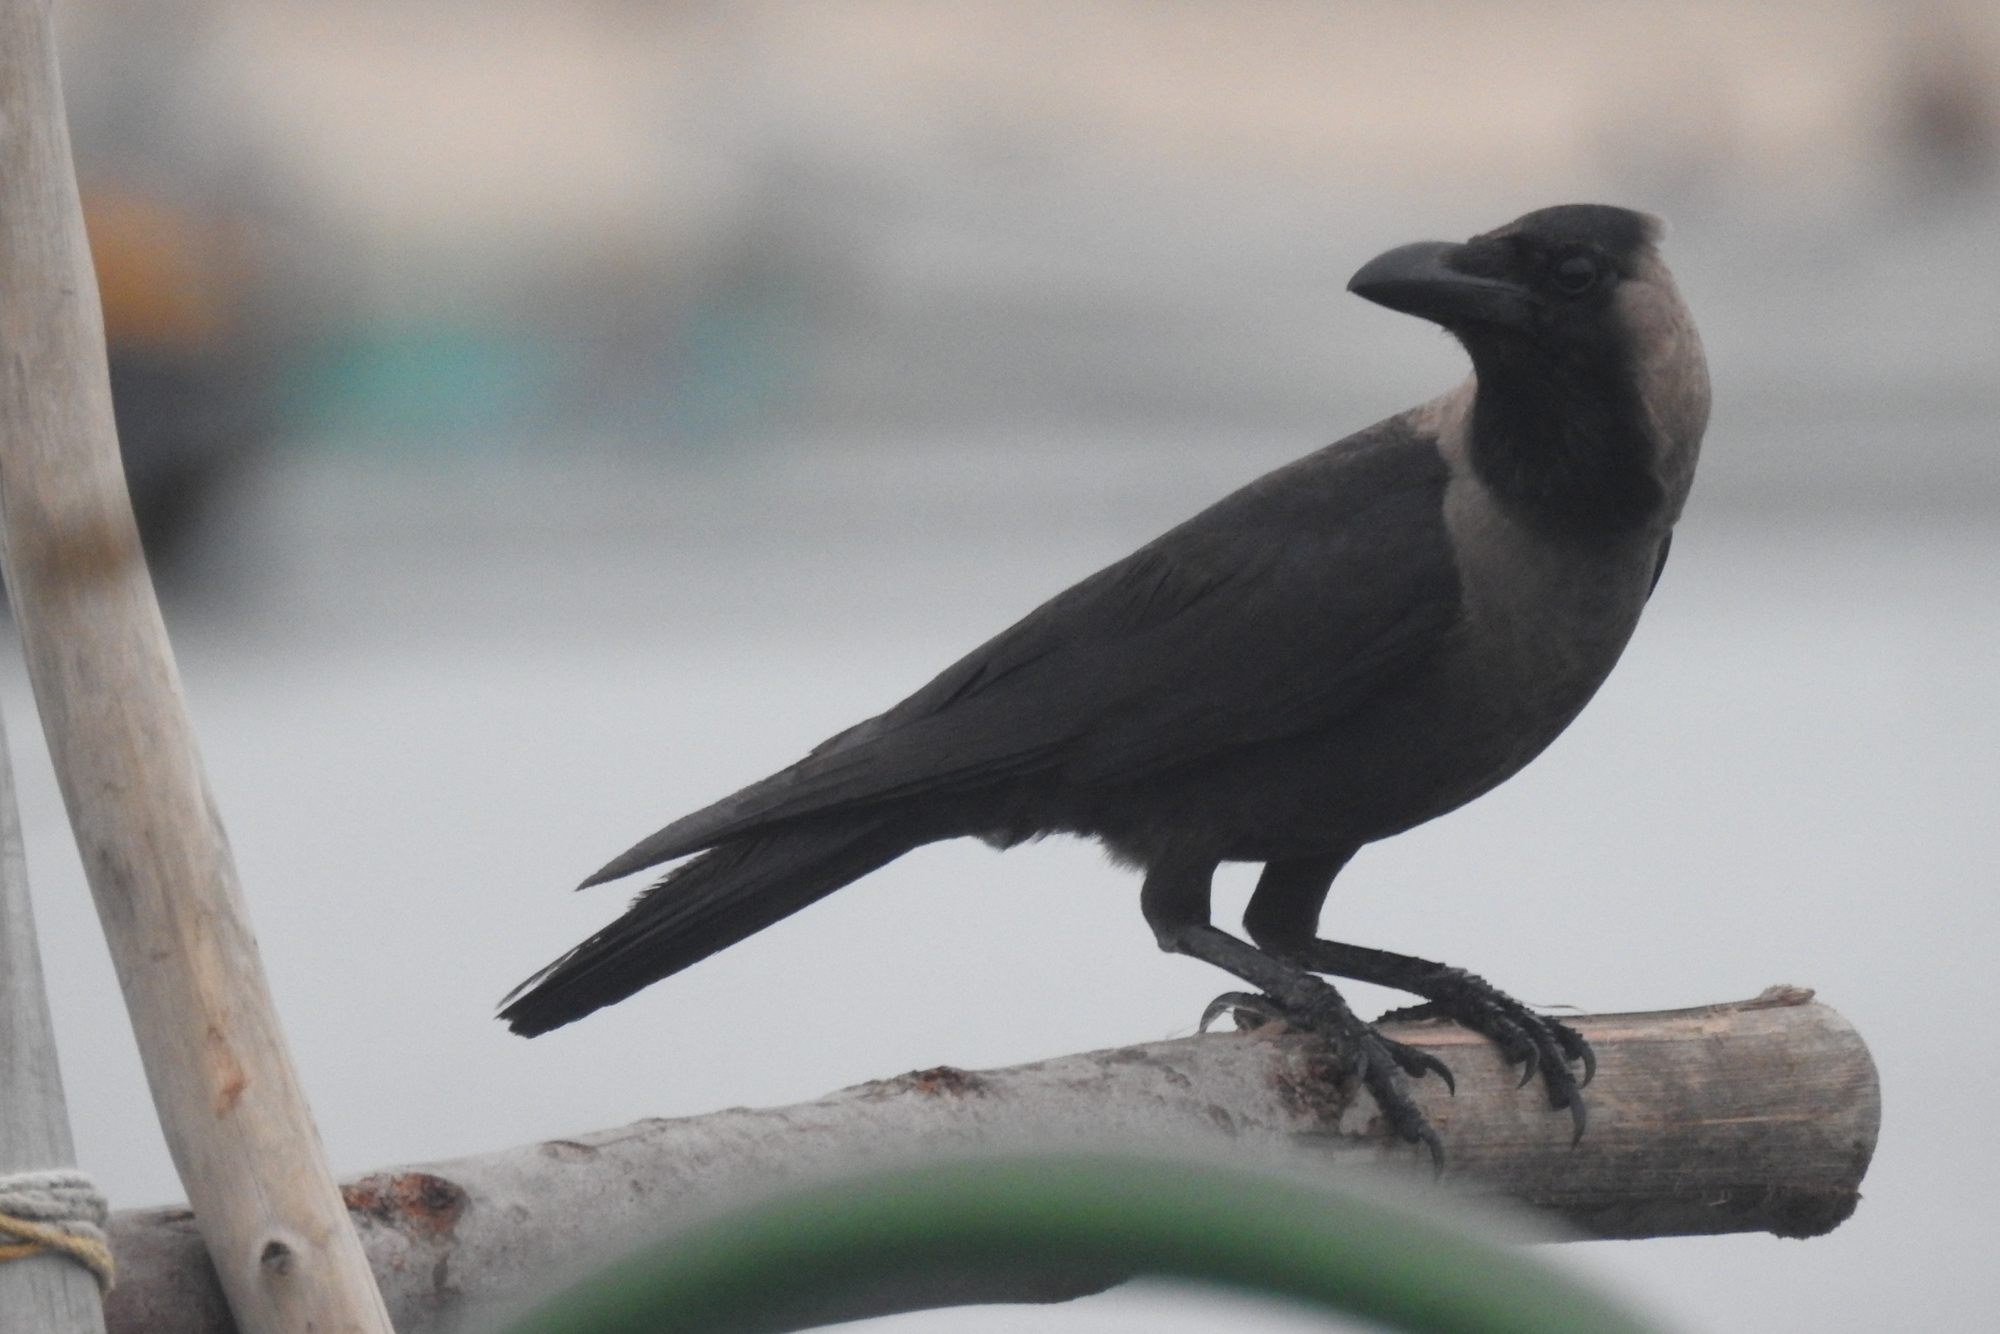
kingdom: Animalia
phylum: Chordata
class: Aves
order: Passeriformes
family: Corvidae
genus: Corvus
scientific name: Corvus splendens
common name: House crow
